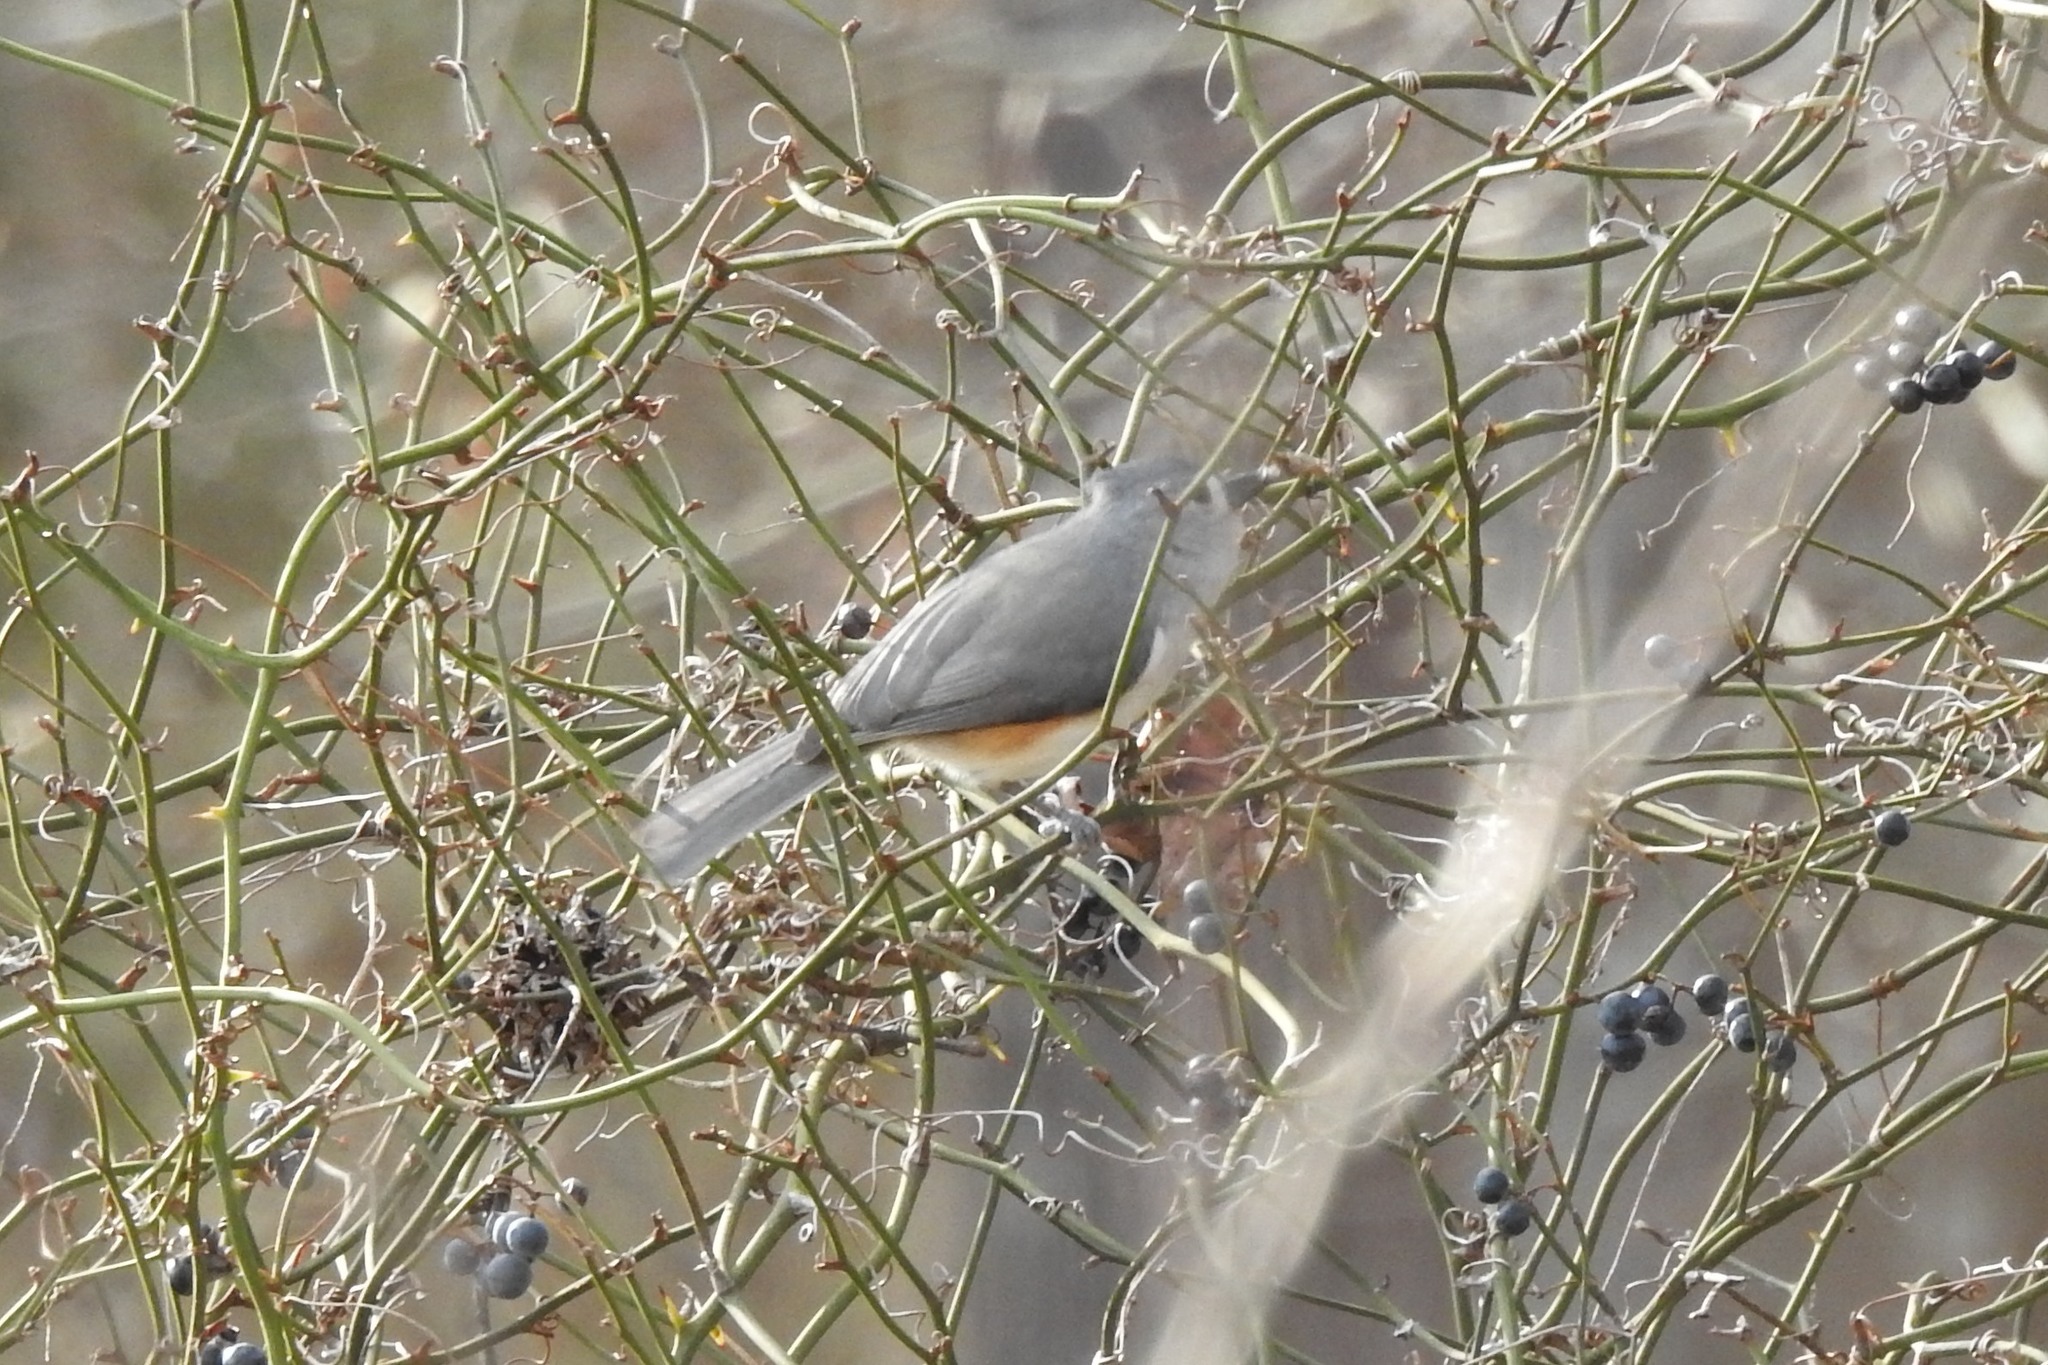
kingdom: Animalia
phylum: Chordata
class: Aves
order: Passeriformes
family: Paridae
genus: Baeolophus
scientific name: Baeolophus bicolor
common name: Tufted titmouse
